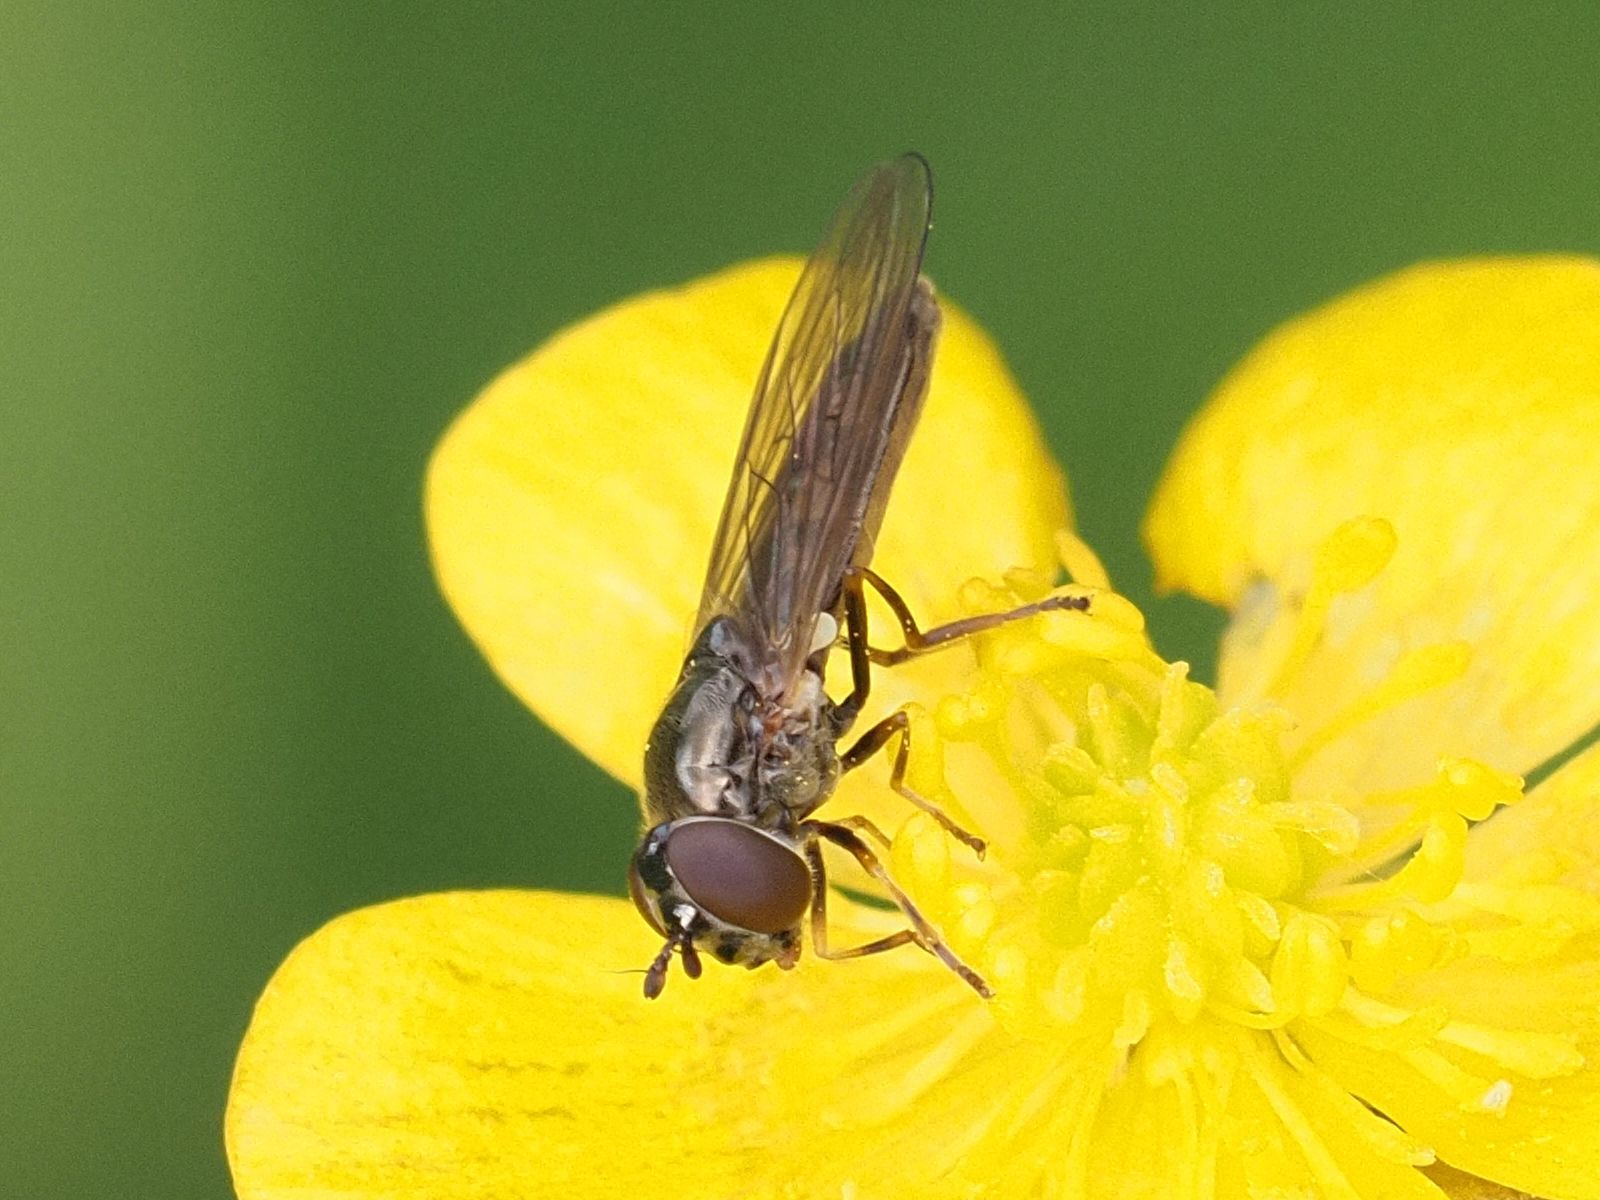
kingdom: Animalia
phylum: Arthropoda
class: Insecta
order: Diptera
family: Syrphidae
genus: Melanostoma
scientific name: Melanostoma scalare
